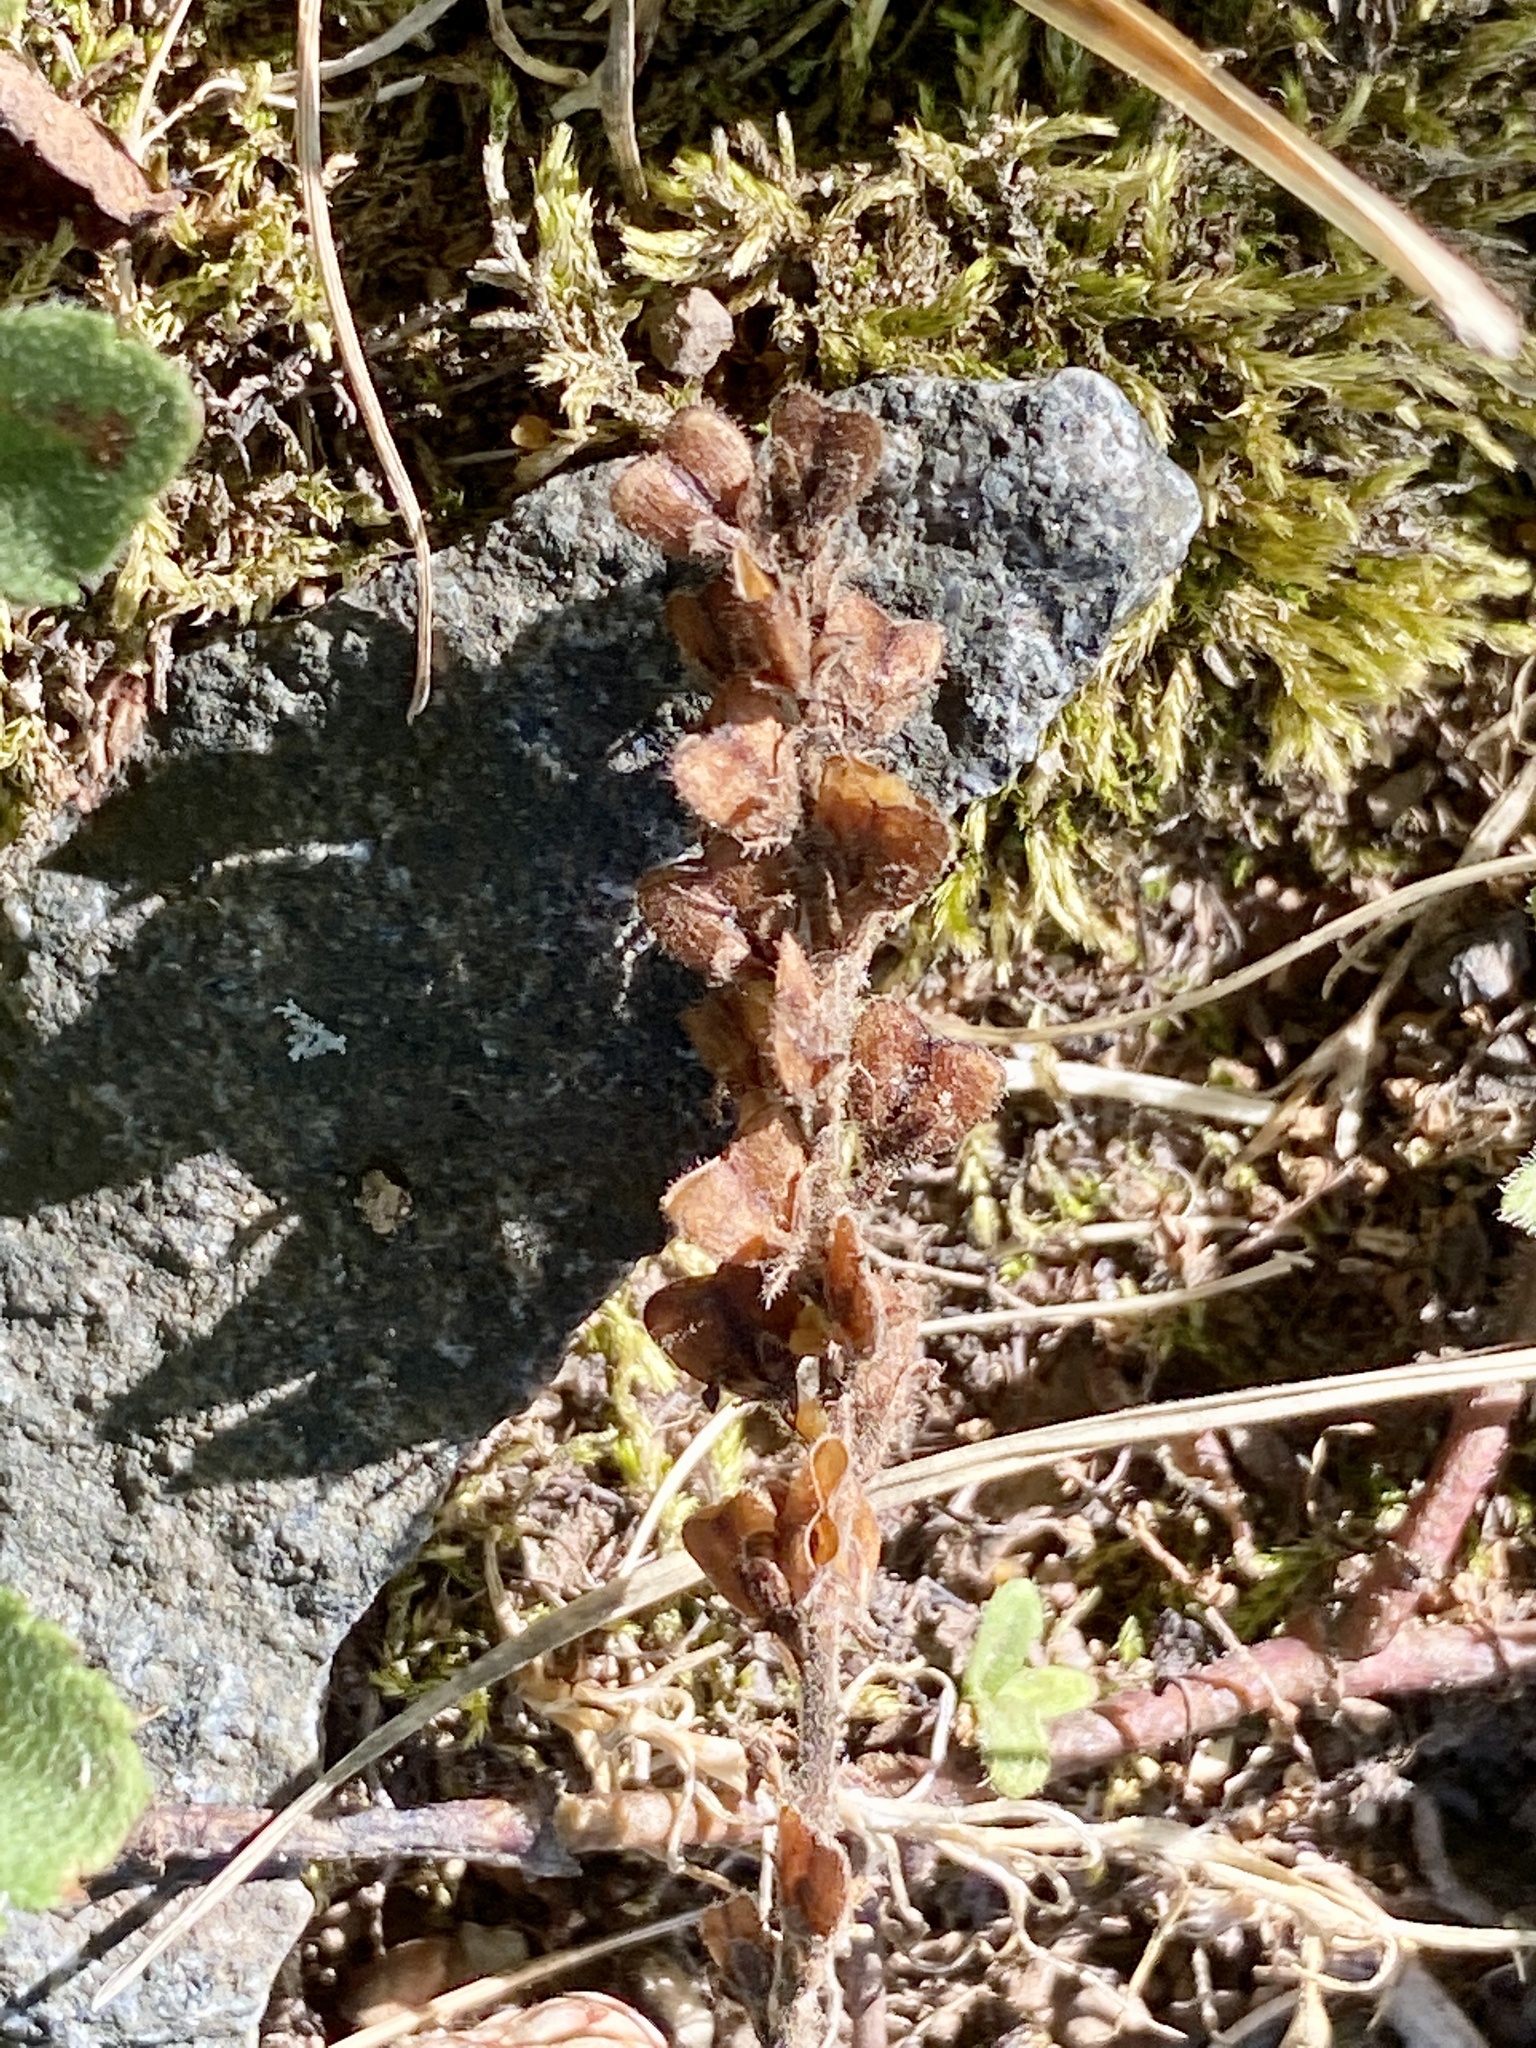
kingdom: Plantae
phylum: Tracheophyta
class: Magnoliopsida
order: Lamiales
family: Plantaginaceae
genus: Veronica
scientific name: Veronica officinalis
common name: Common speedwell
